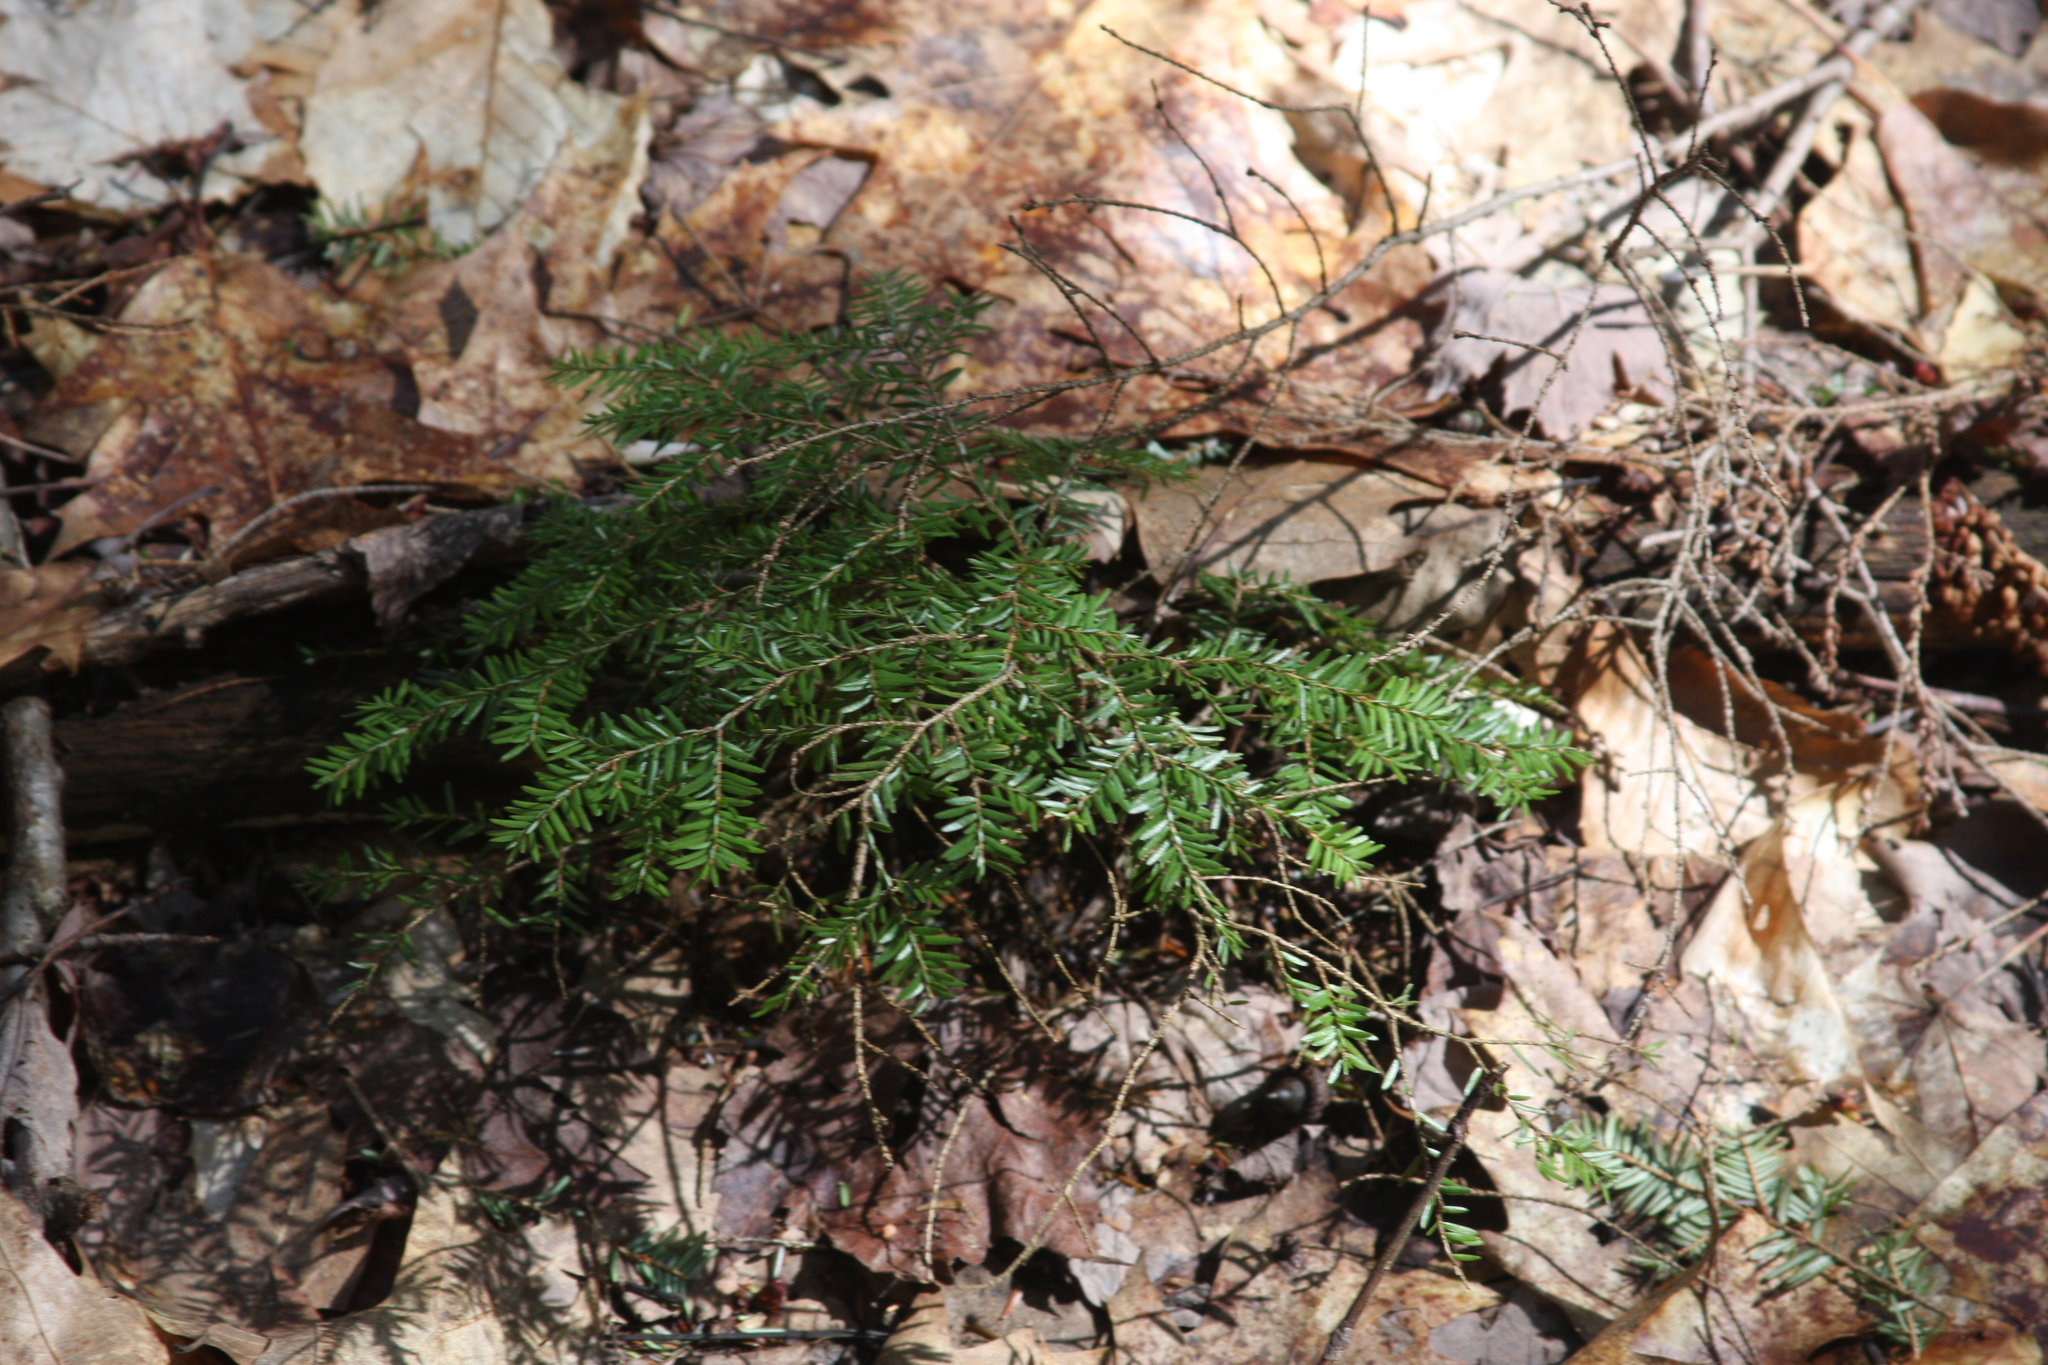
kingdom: Plantae
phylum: Tracheophyta
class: Pinopsida
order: Pinales
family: Pinaceae
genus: Tsuga
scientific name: Tsuga canadensis
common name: Eastern hemlock
